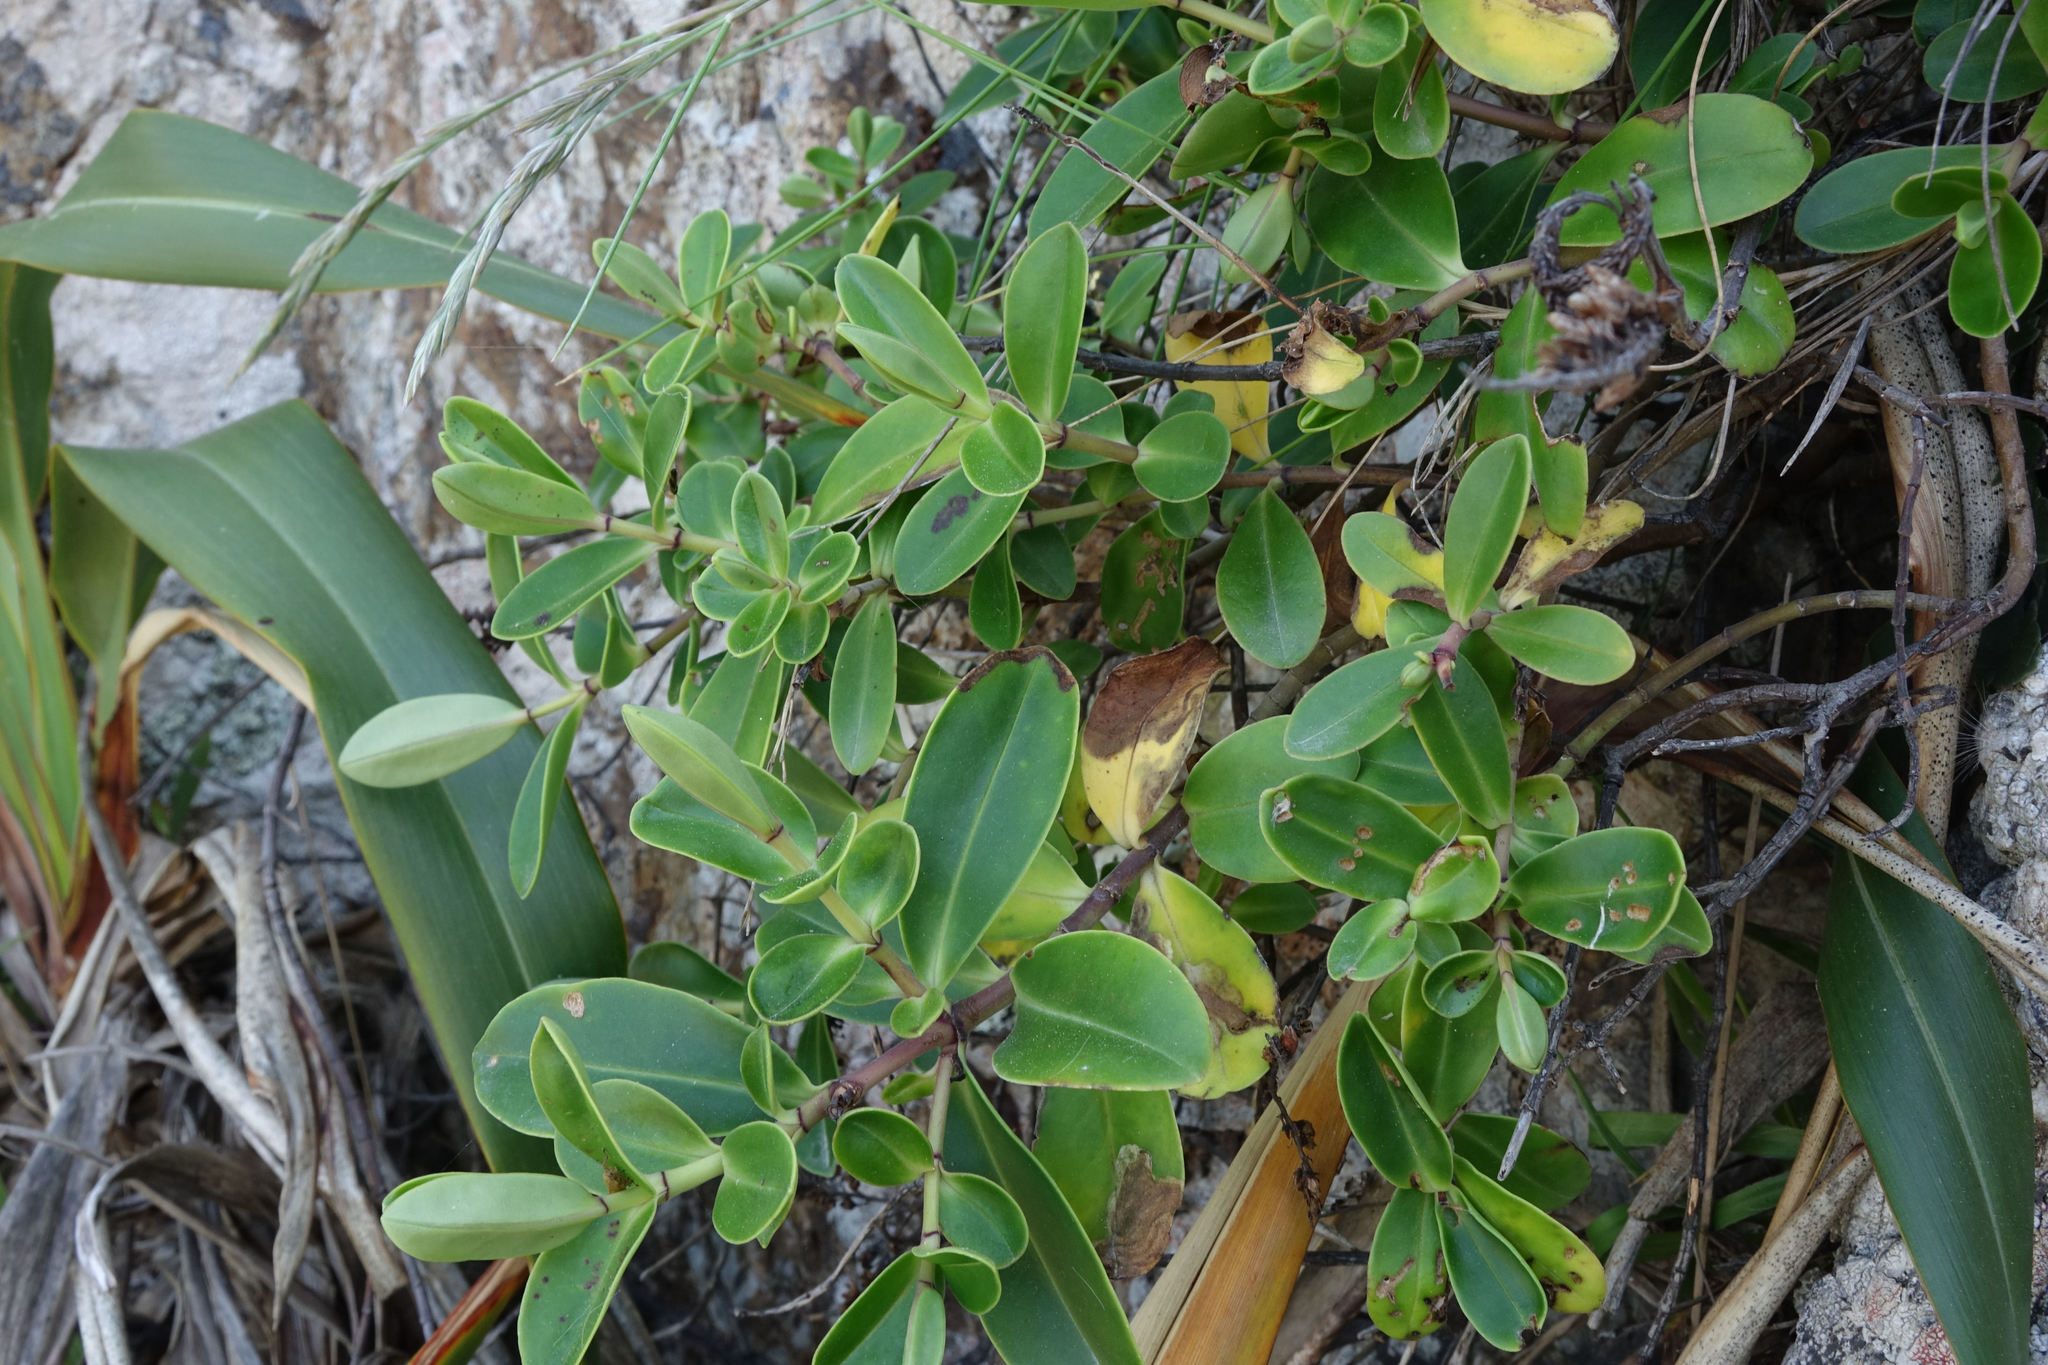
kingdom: Plantae
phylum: Tracheophyta
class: Magnoliopsida
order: Lamiales
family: Plantaginaceae
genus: Veronica
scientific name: Veronica stricta
